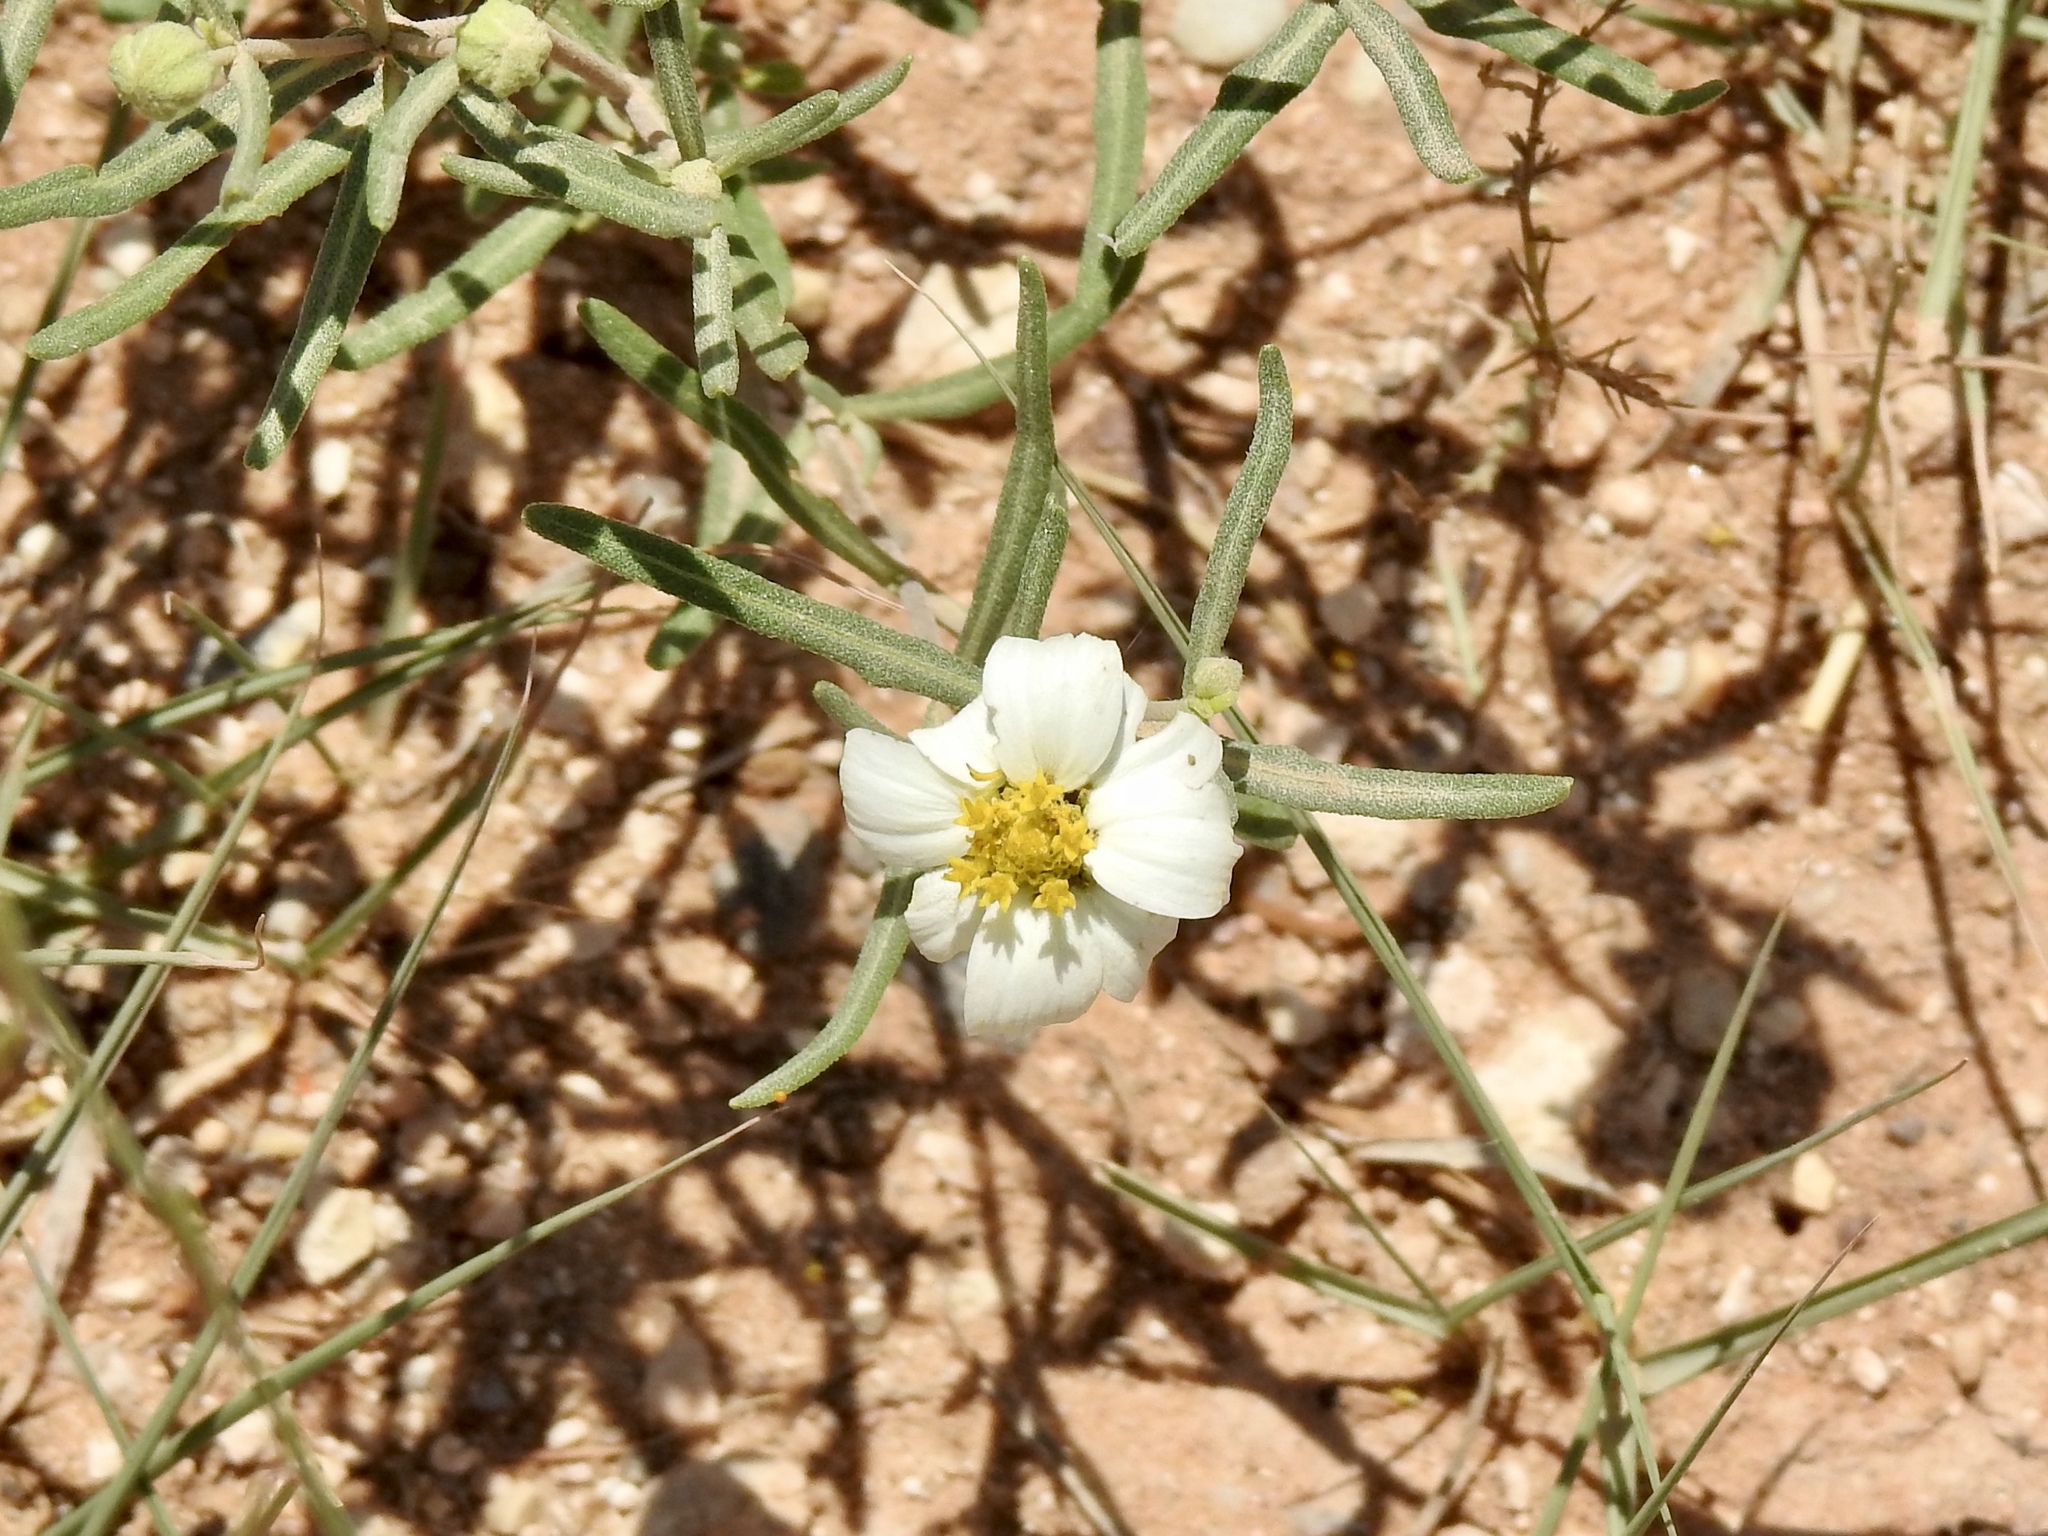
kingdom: Plantae
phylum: Tracheophyta
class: Magnoliopsida
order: Asterales
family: Asteraceae
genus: Melampodium
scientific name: Melampodium leucanthum
